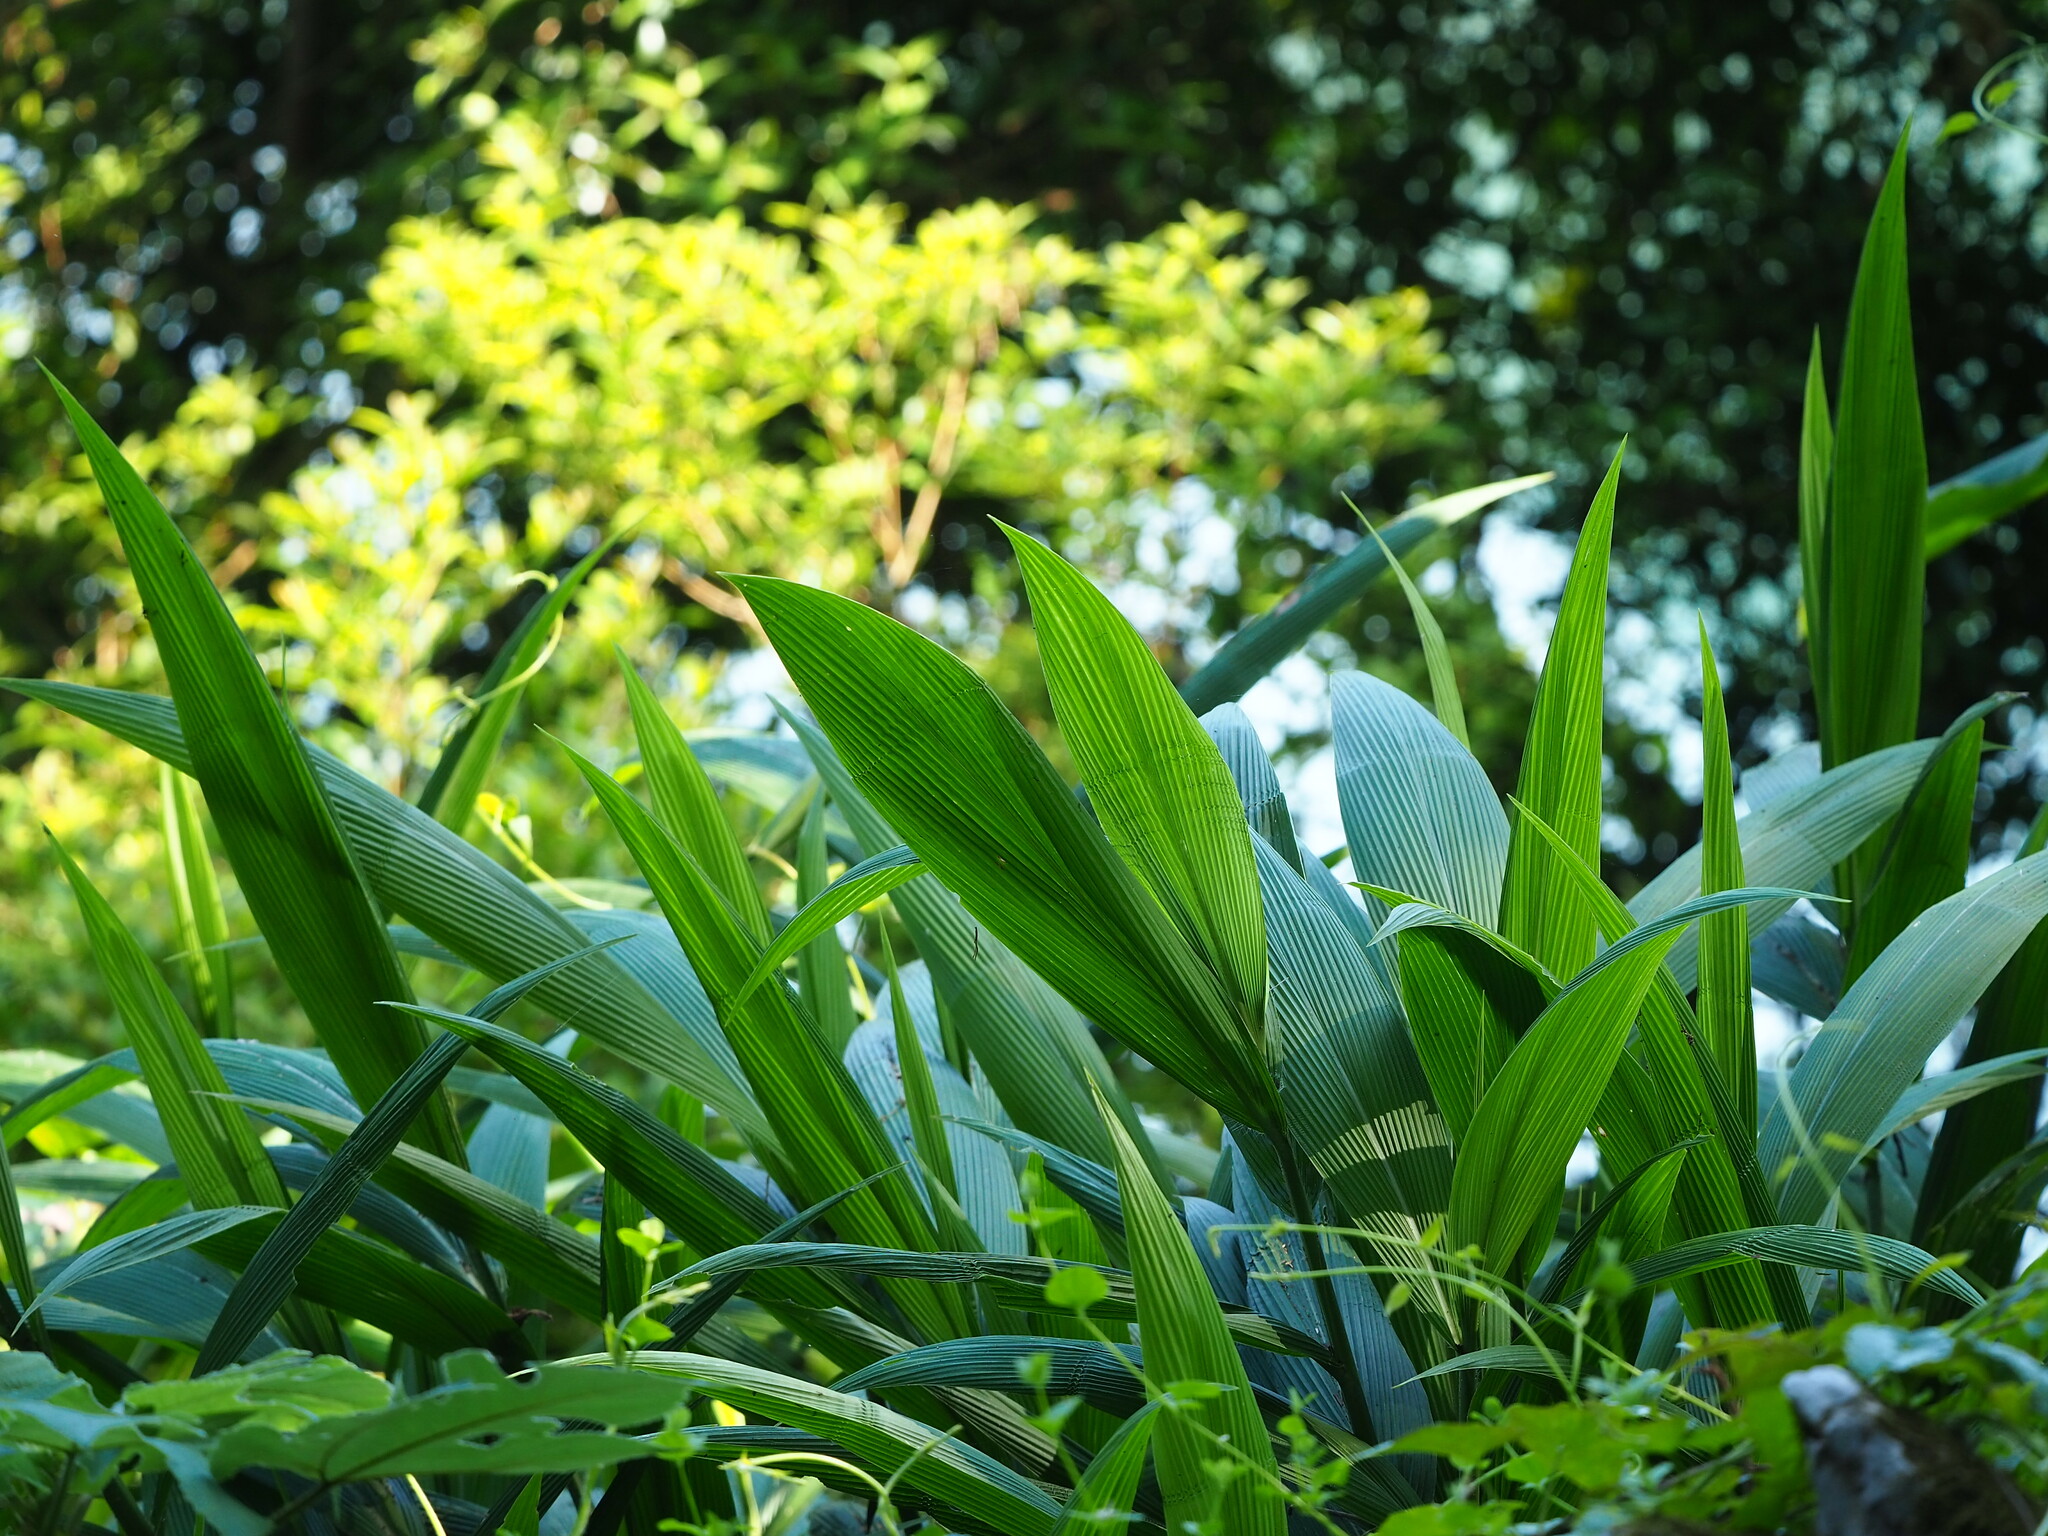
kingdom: Plantae
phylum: Tracheophyta
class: Liliopsida
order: Poales
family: Poaceae
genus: Setaria
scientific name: Setaria palmifolia
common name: Broadleaved bristlegrass
